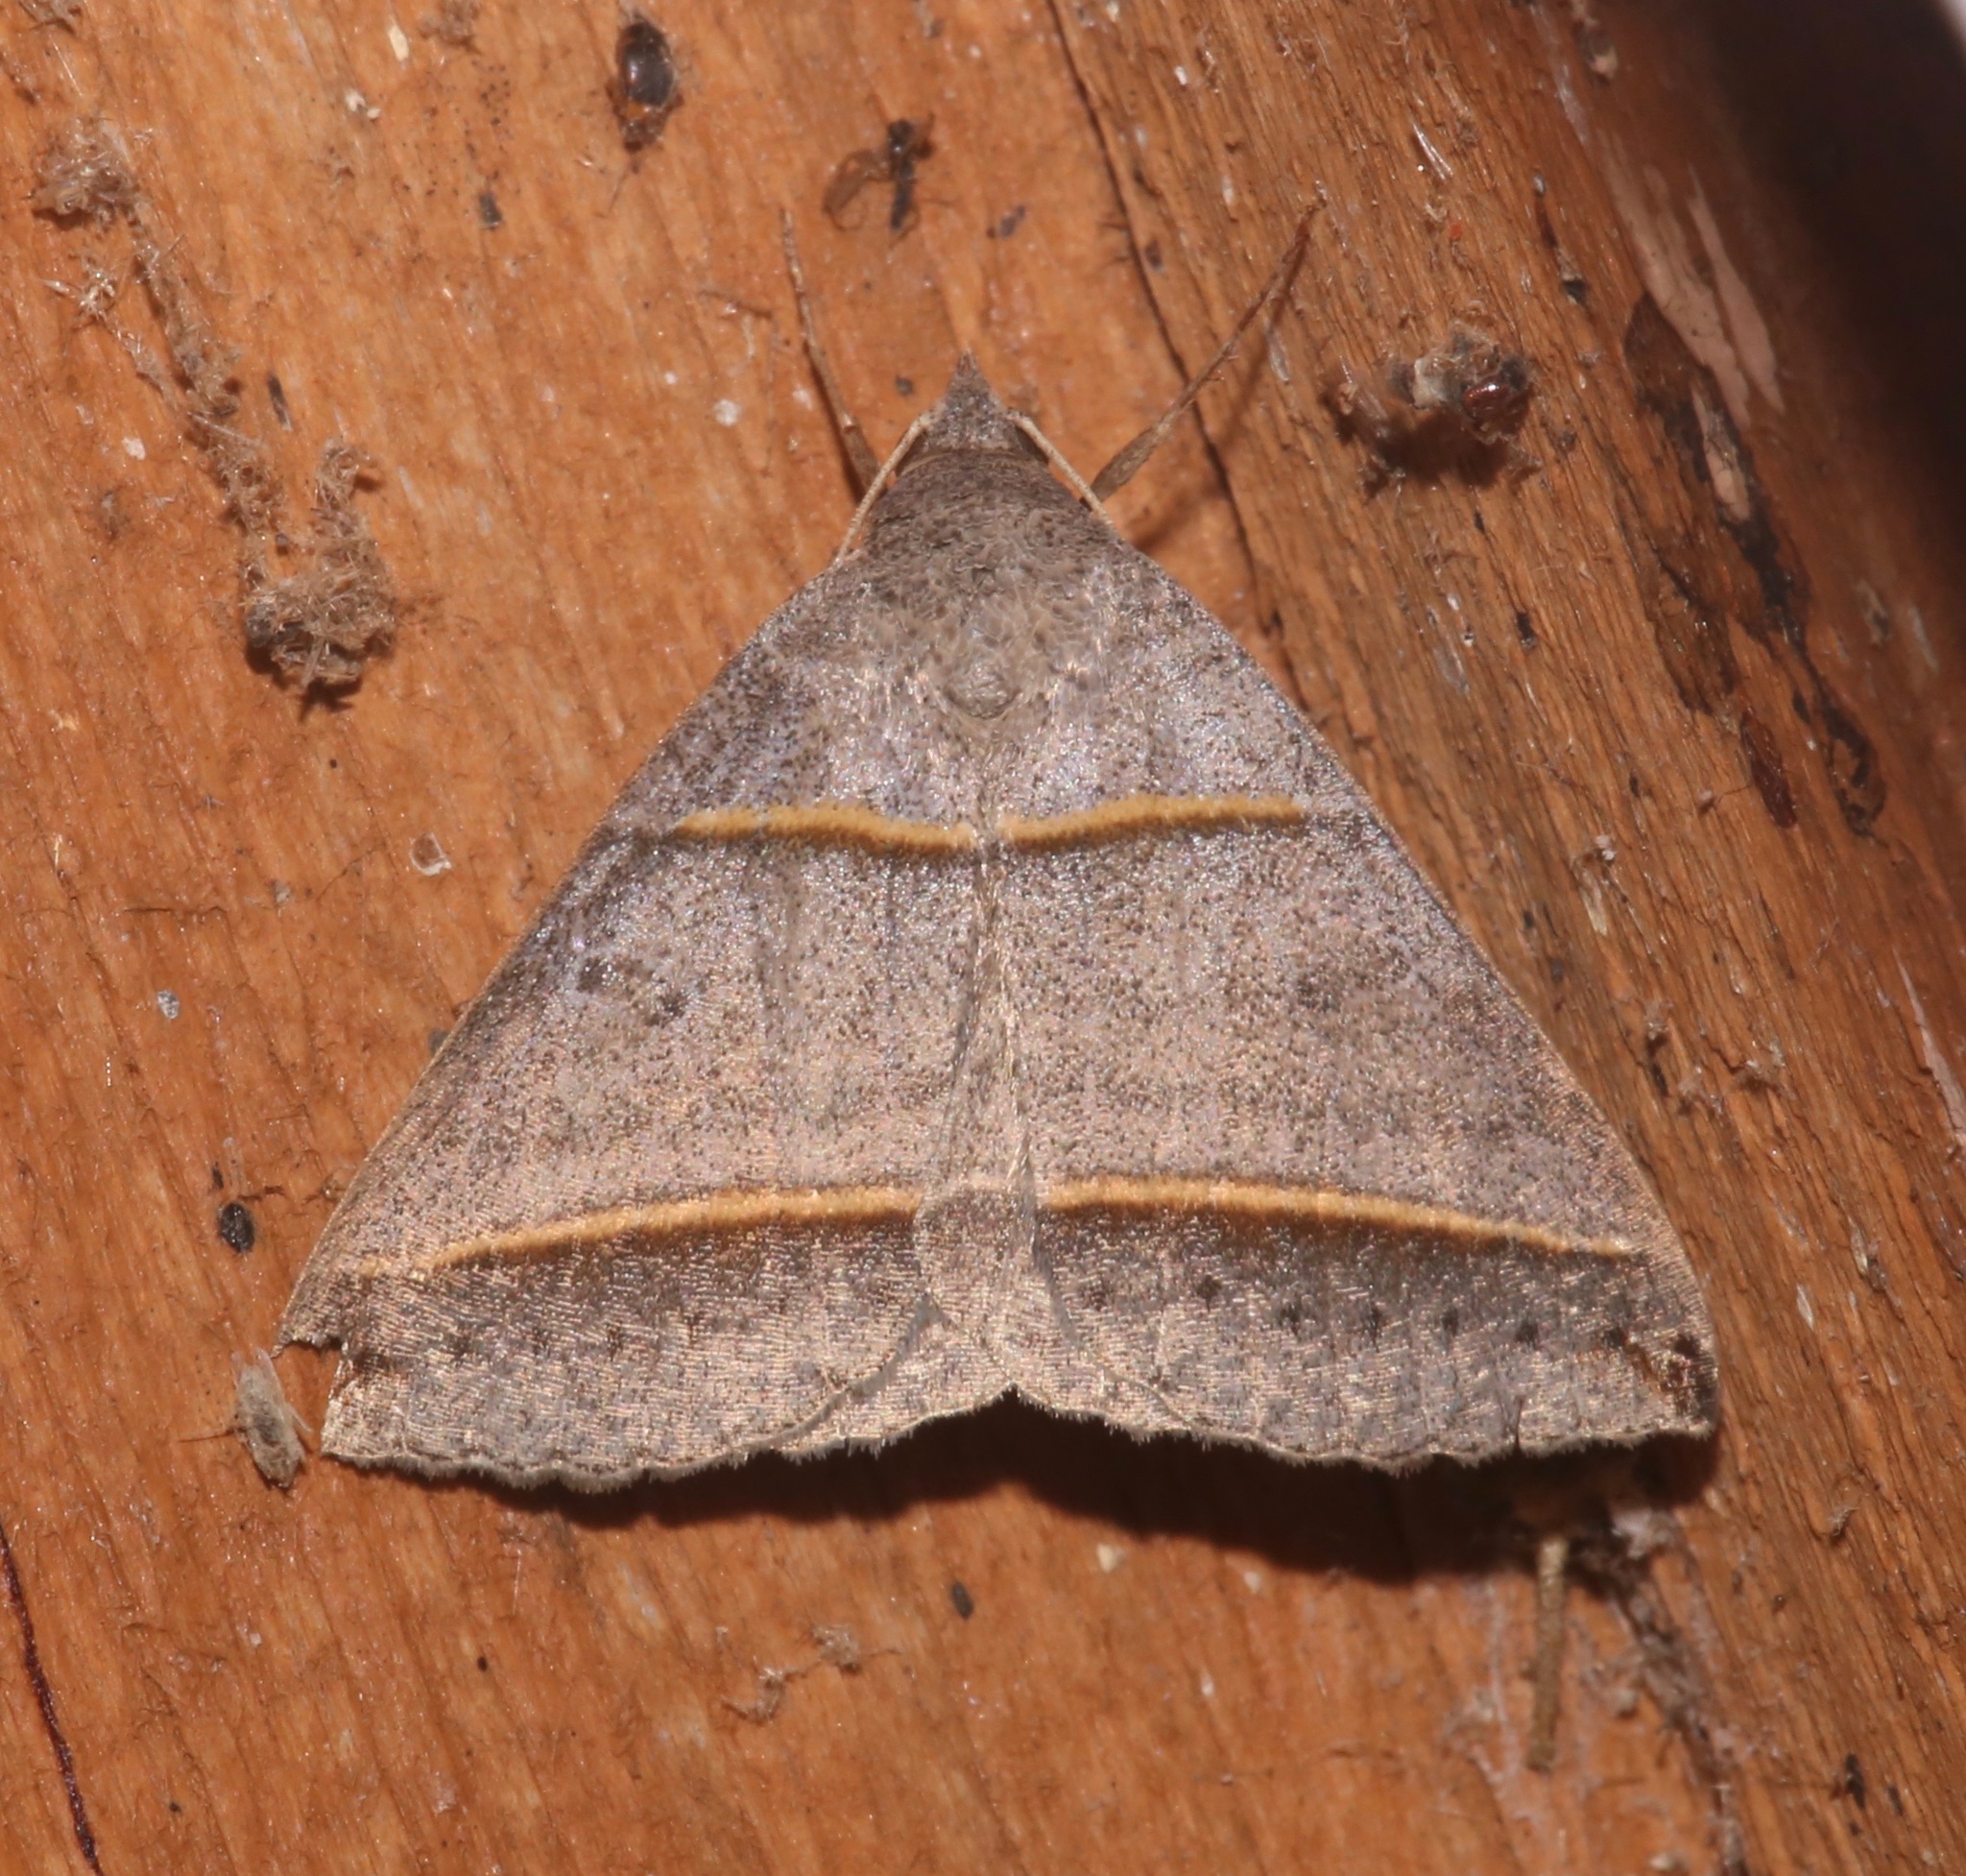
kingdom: Animalia
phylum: Arthropoda
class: Insecta
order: Lepidoptera
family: Erebidae
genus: Ptichodis
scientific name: Ptichodis vinculum
